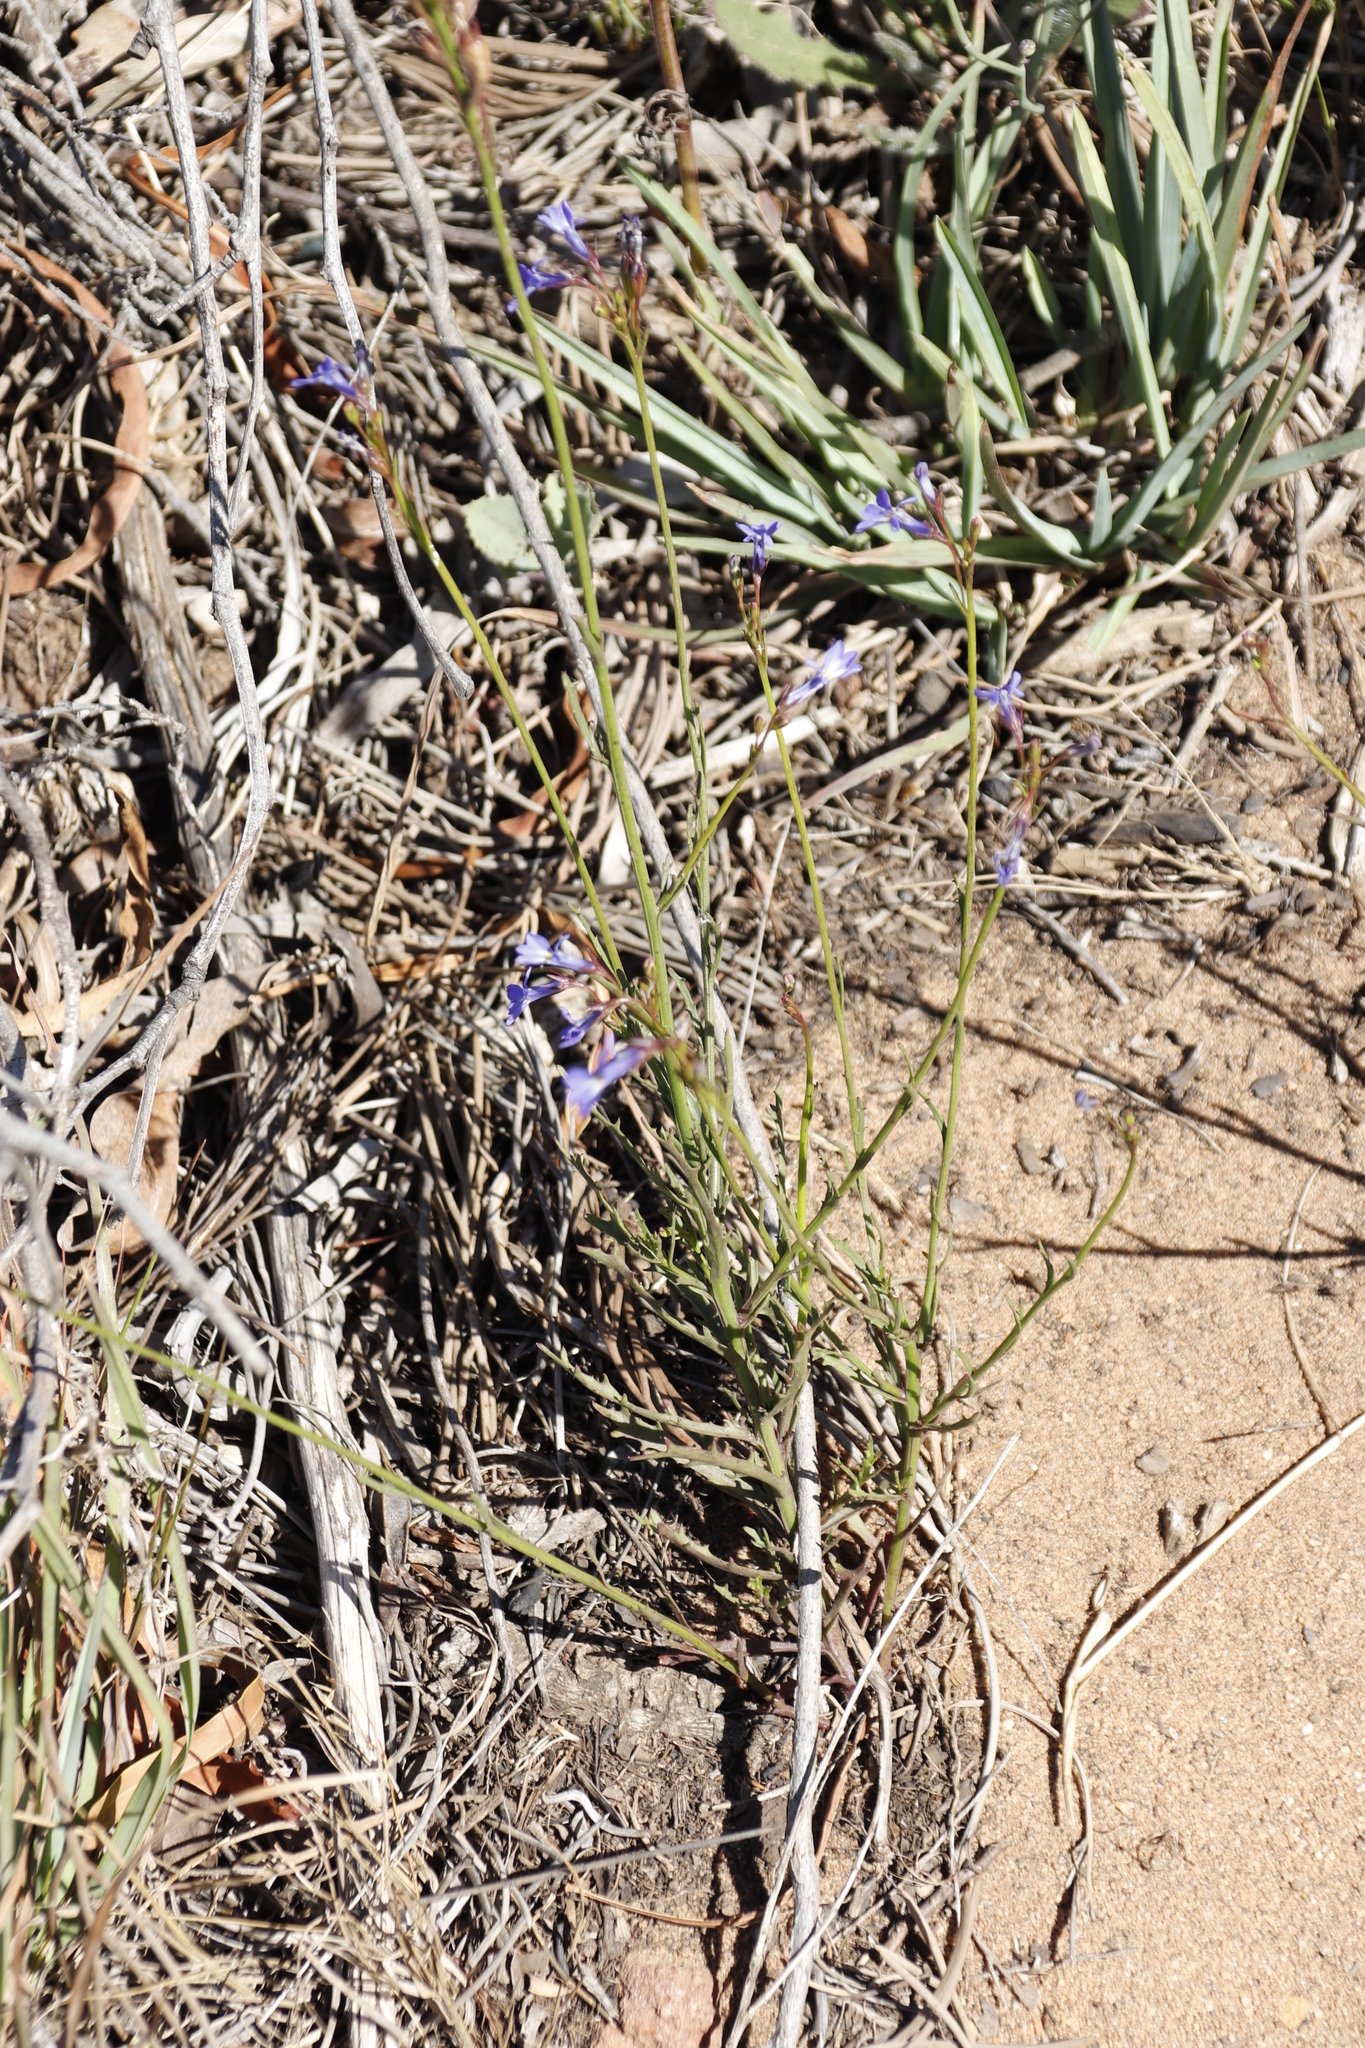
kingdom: Plantae
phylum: Tracheophyta
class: Magnoliopsida
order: Asterales
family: Campanulaceae
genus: Lobelia
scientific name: Lobelia comosa
